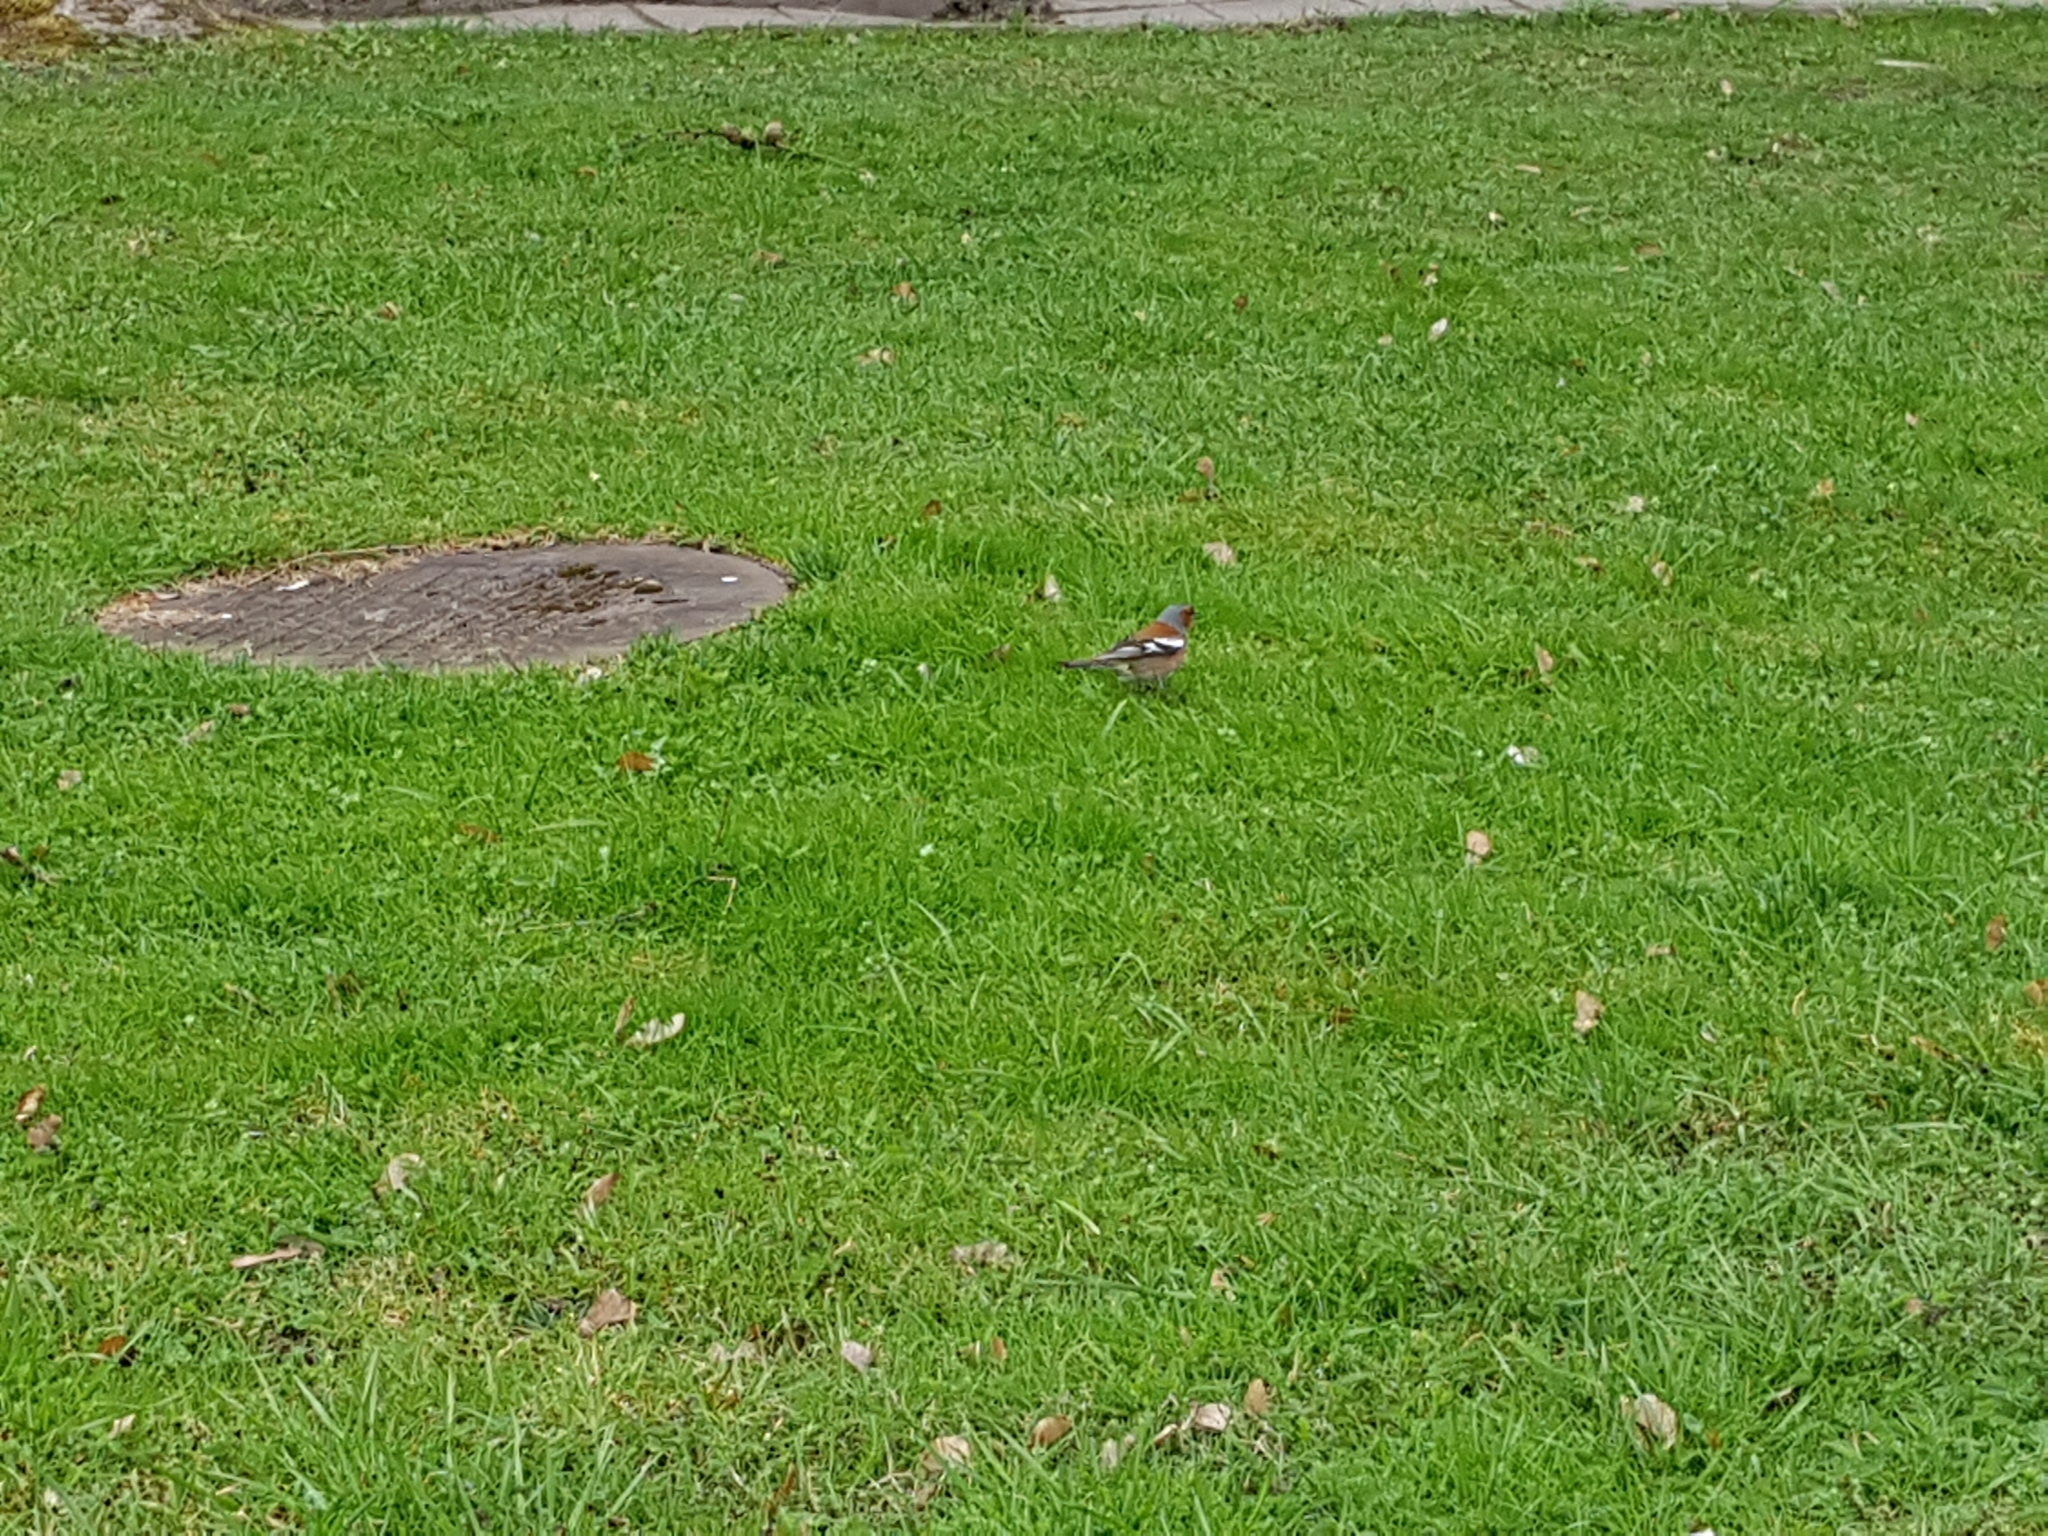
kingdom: Animalia
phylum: Chordata
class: Aves
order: Passeriformes
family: Fringillidae
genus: Fringilla
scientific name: Fringilla coelebs
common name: Common chaffinch
